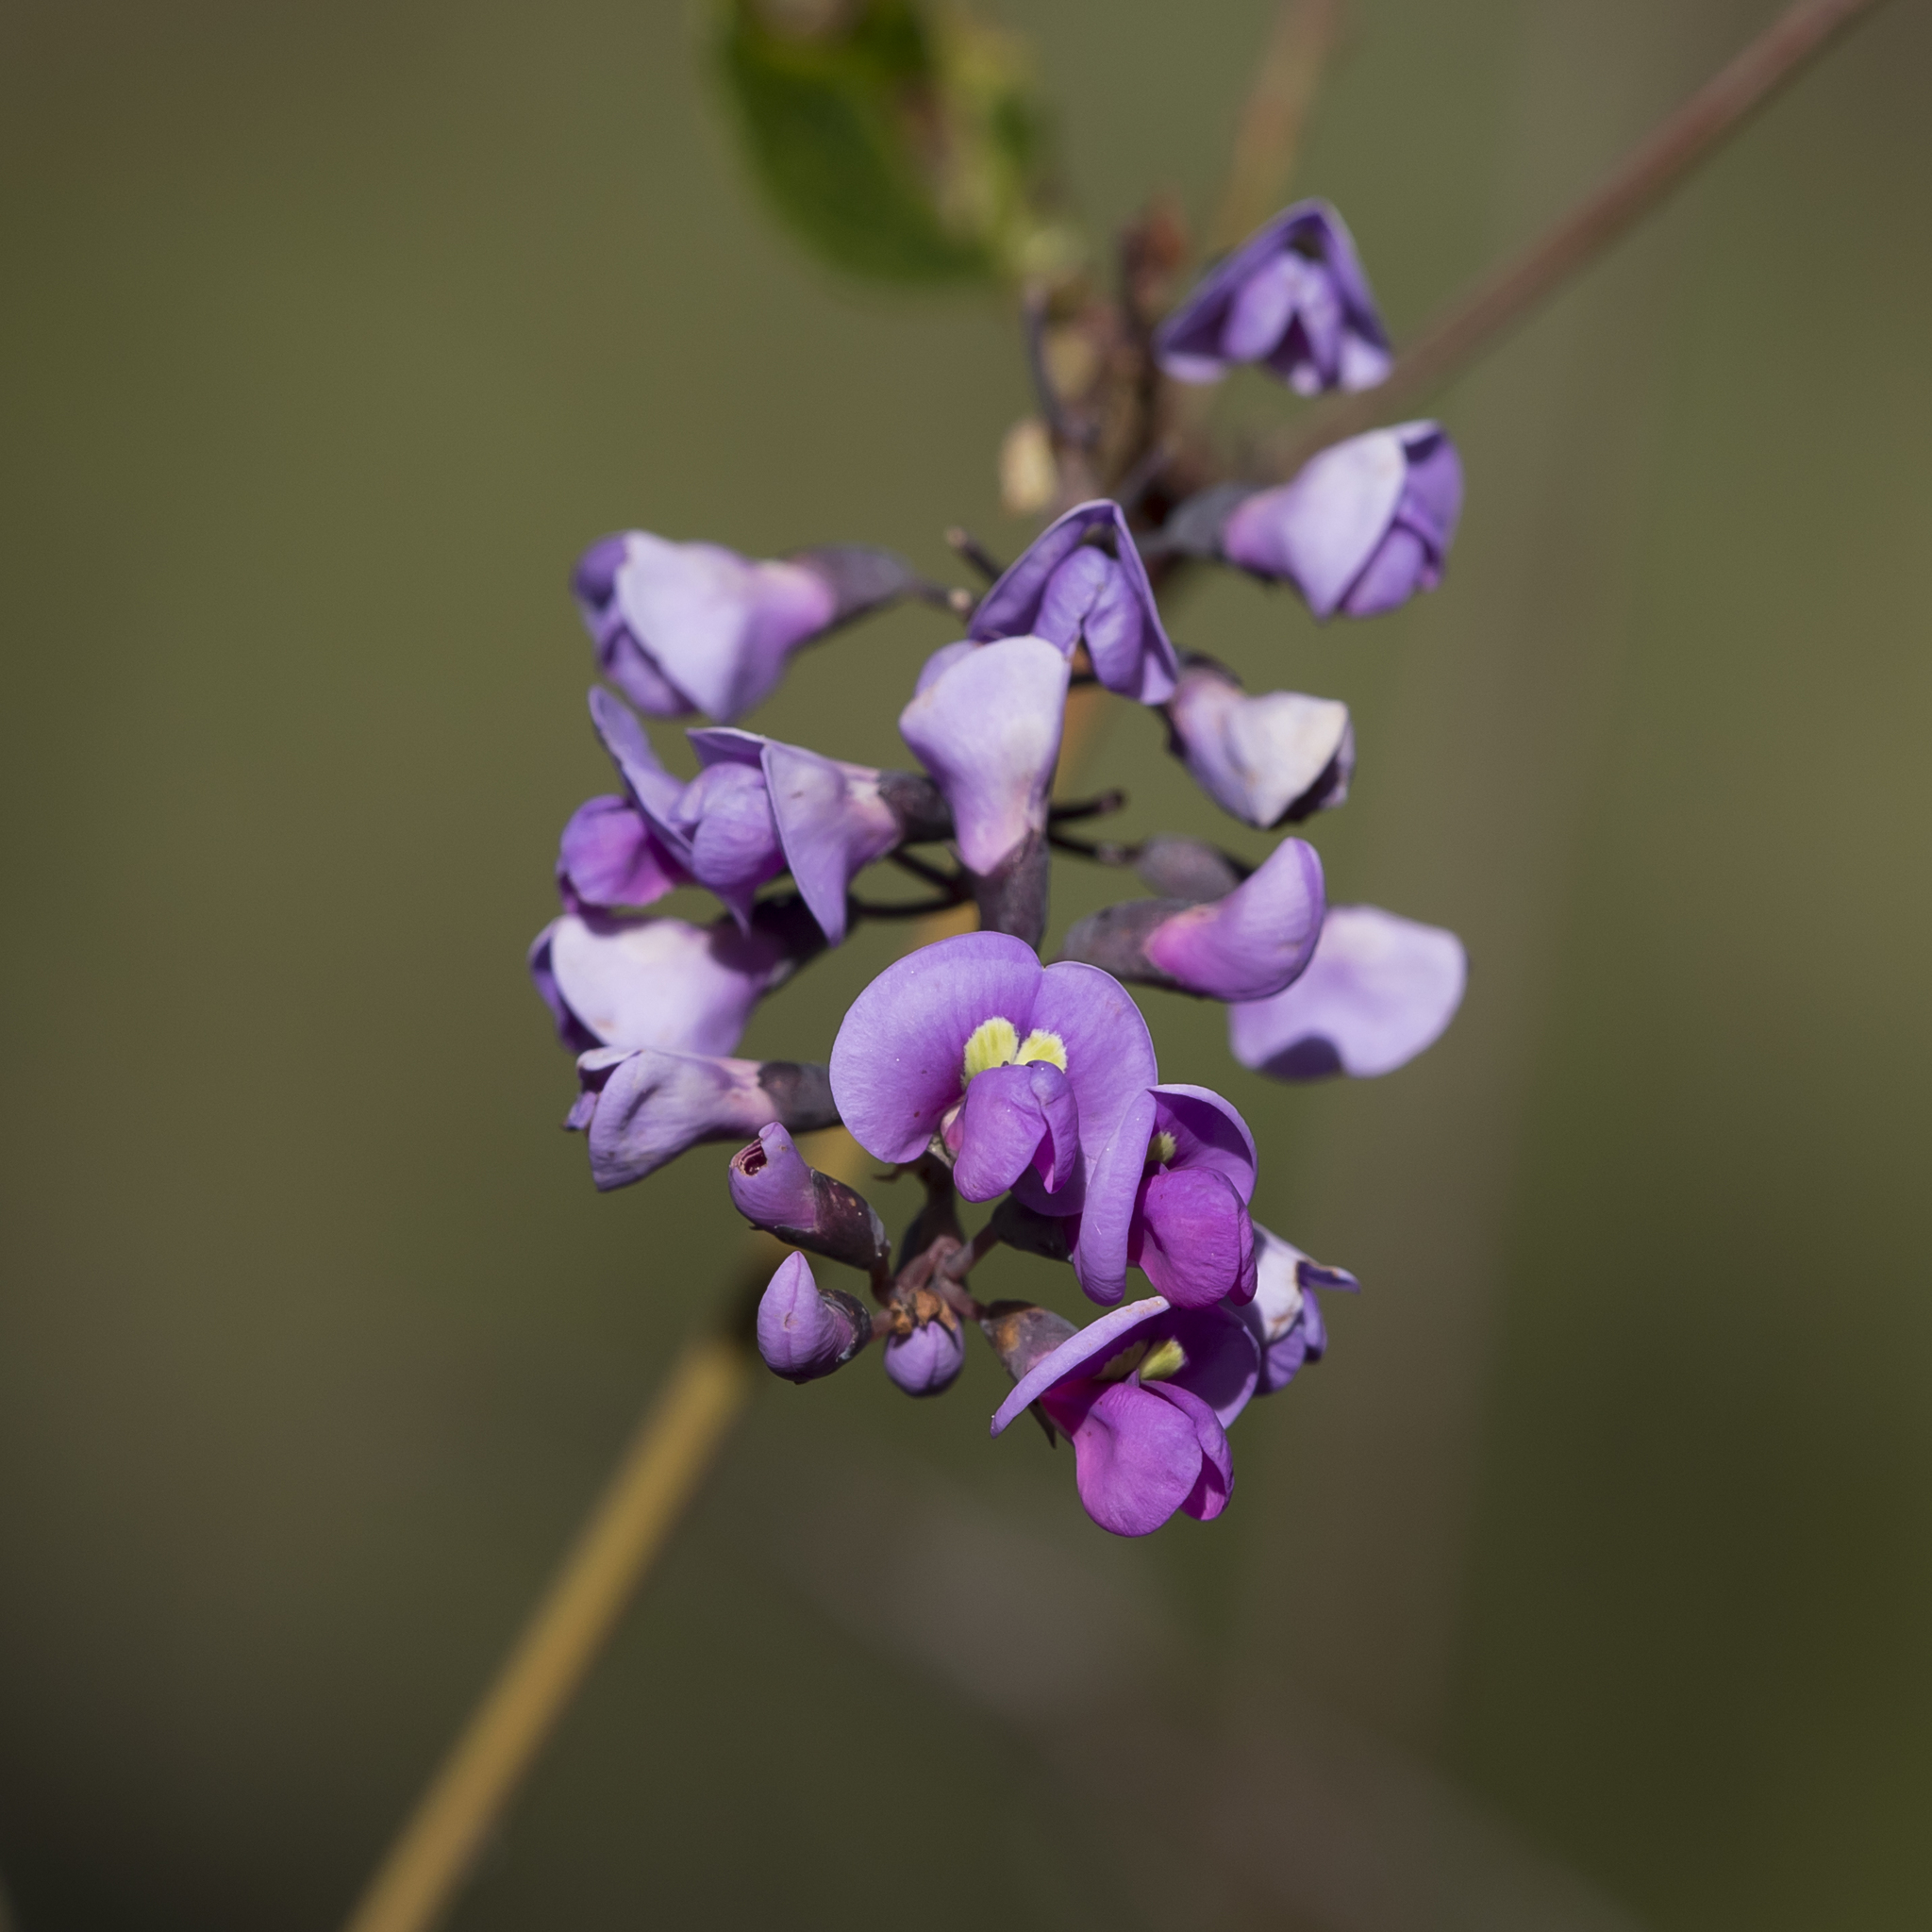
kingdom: Plantae
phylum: Tracheophyta
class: Magnoliopsida
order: Fabales
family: Fabaceae
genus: Hardenbergia
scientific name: Hardenbergia violacea
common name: Coral-pea
